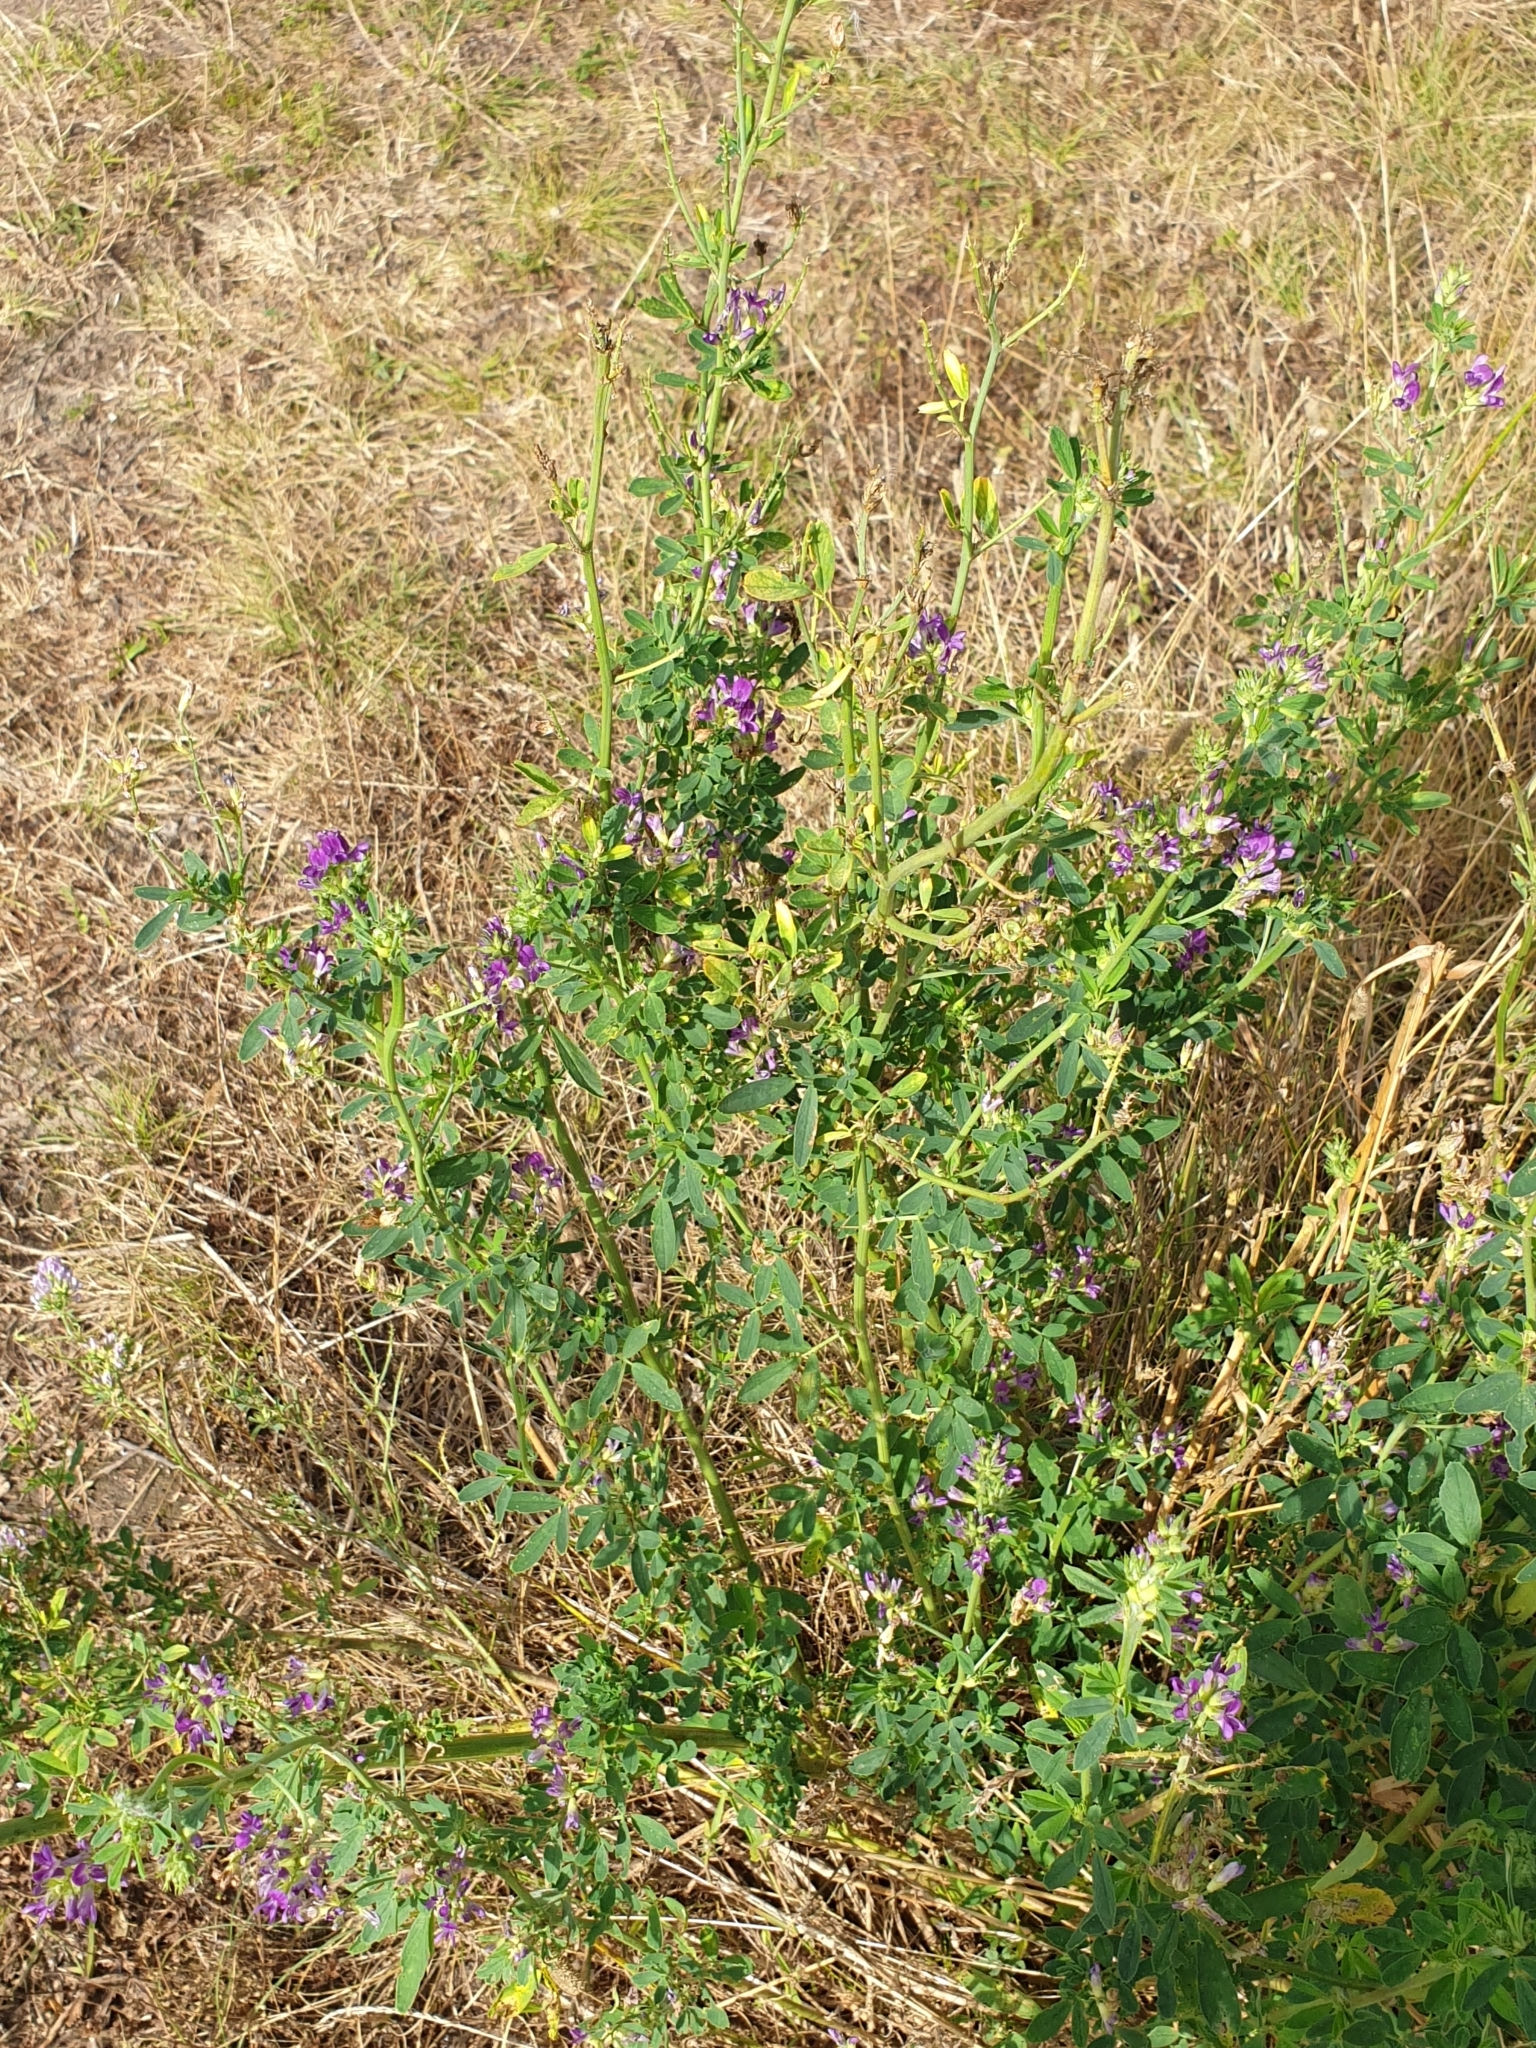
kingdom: Plantae
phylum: Tracheophyta
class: Magnoliopsida
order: Fabales
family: Fabaceae
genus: Medicago
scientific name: Medicago sativa
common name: Alfalfa
